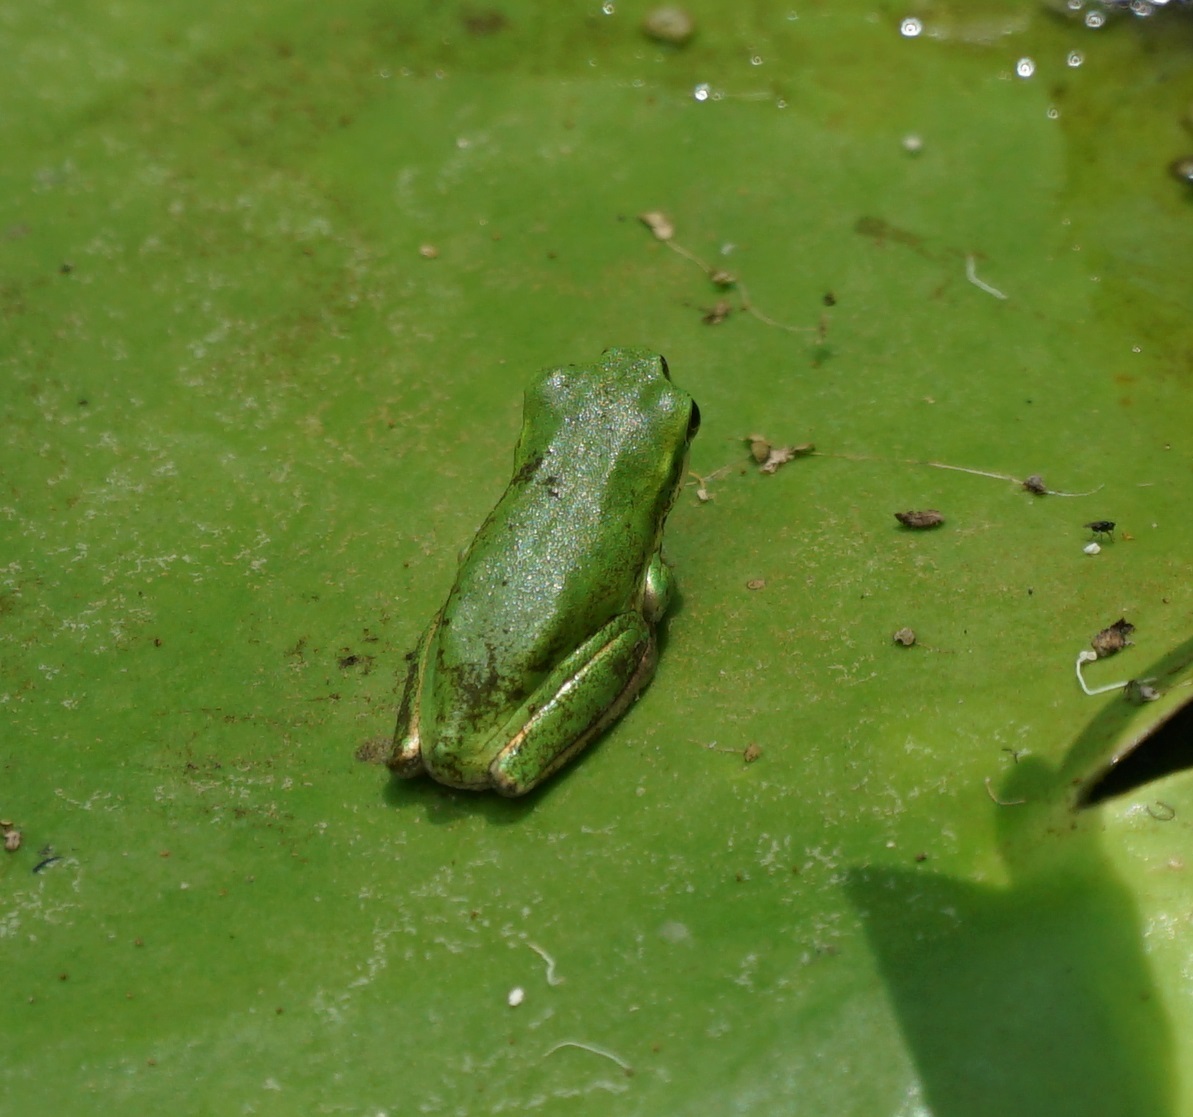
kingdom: Animalia
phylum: Chordata
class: Amphibia
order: Anura
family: Pelodryadidae
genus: Litoria
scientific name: Litoria fallax
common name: Eastern dwarf treefrog
